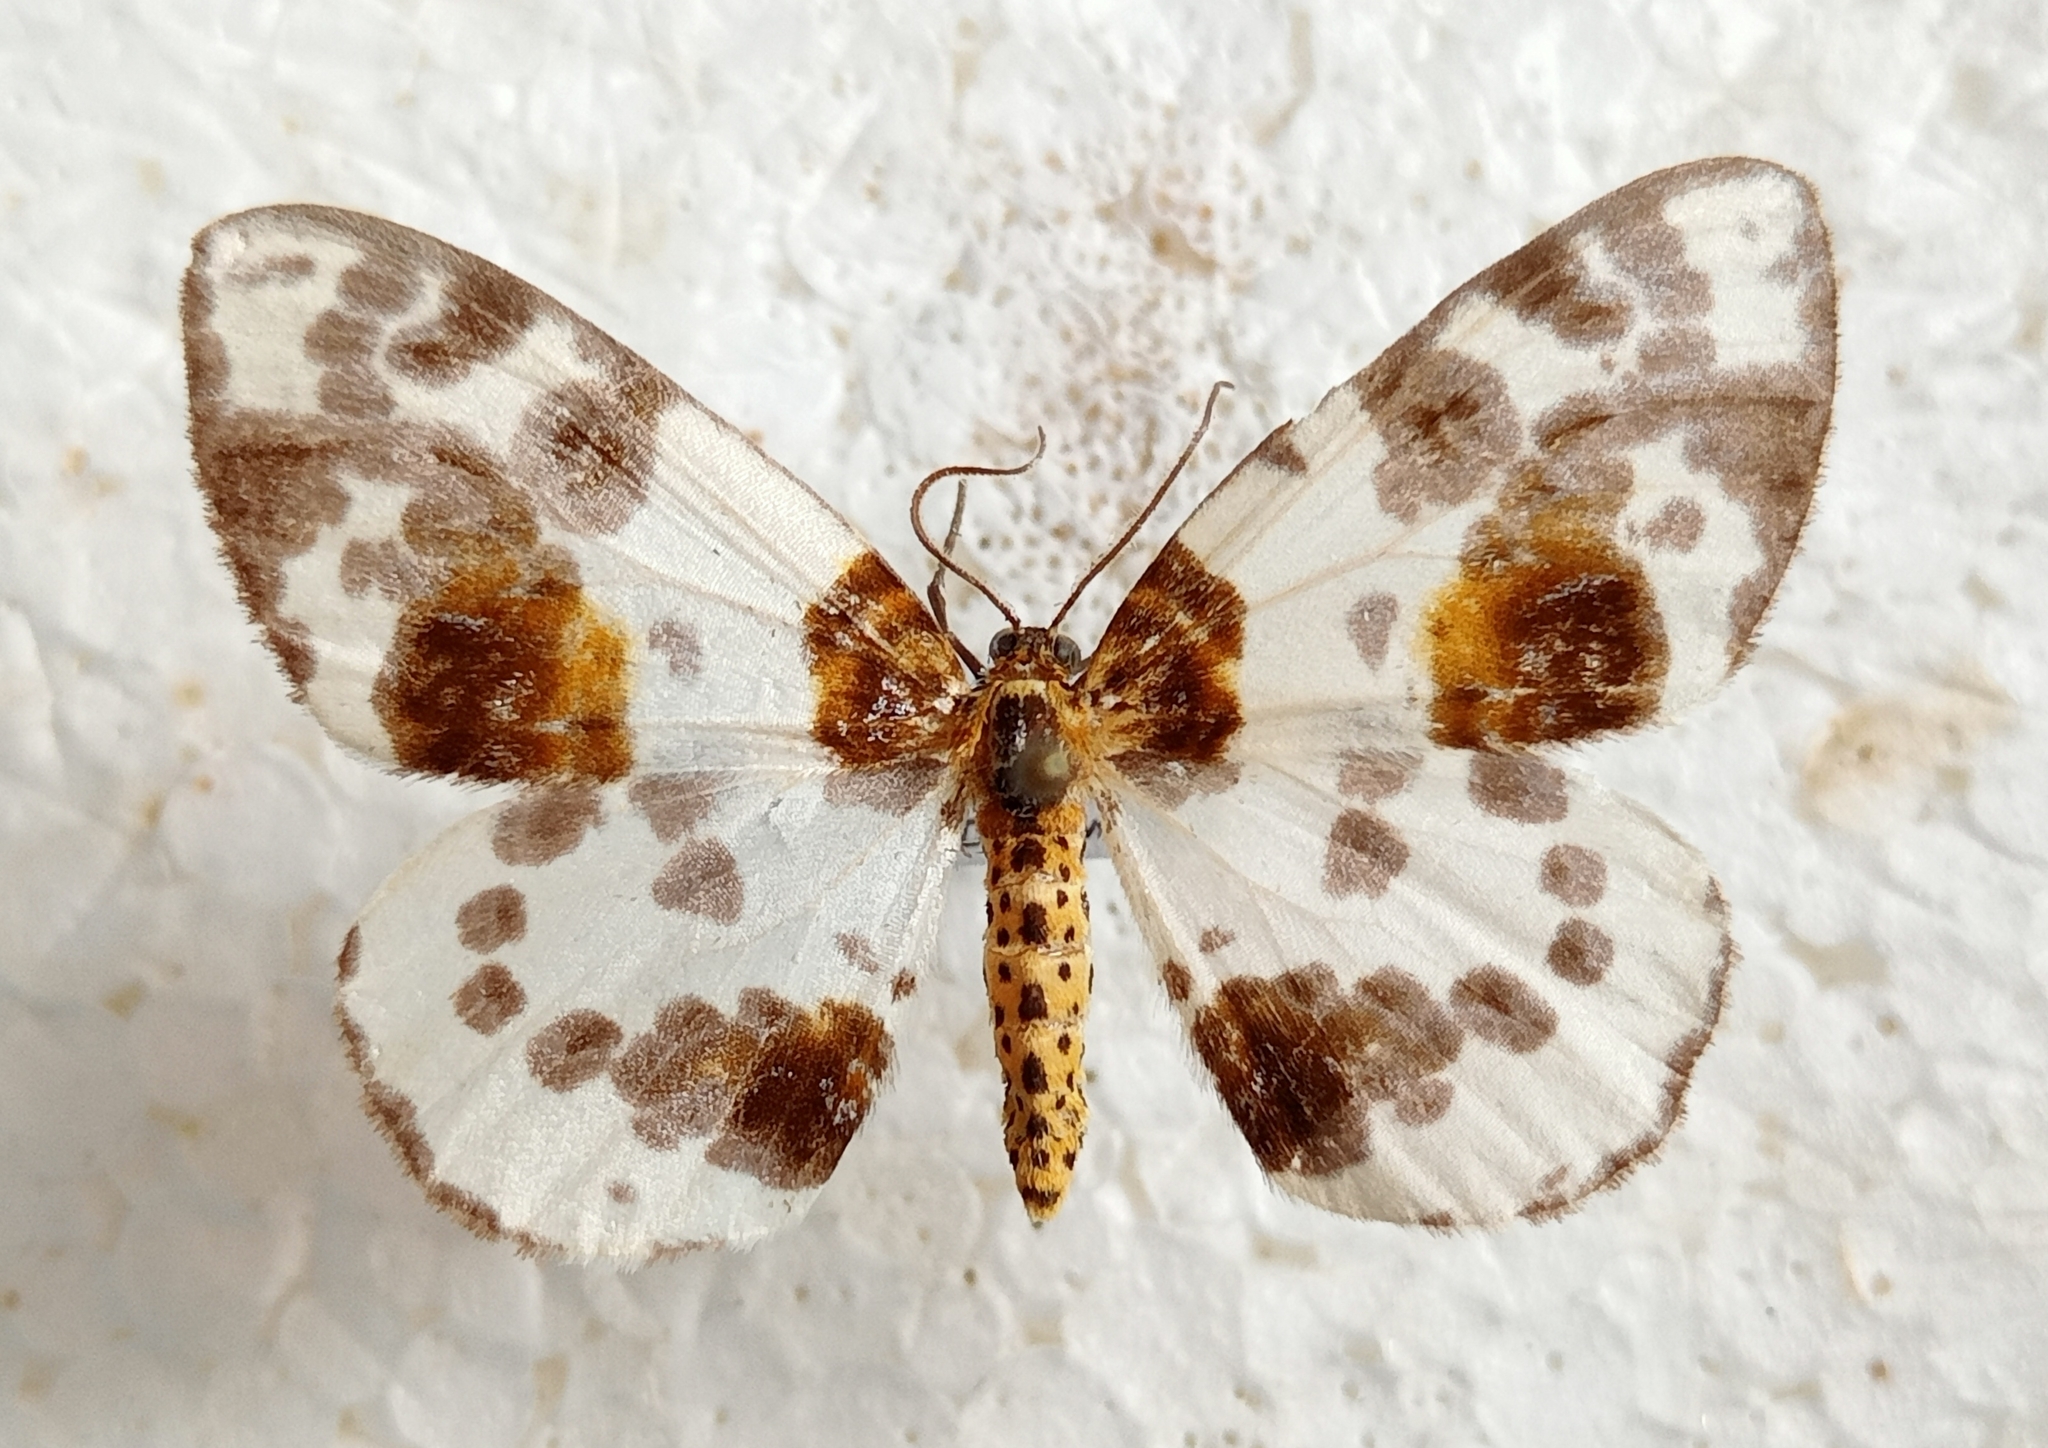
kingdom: Animalia
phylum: Arthropoda
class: Insecta
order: Lepidoptera
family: Geometridae
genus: Abraxas
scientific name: Abraxas sylvata
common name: Clouded magpie
